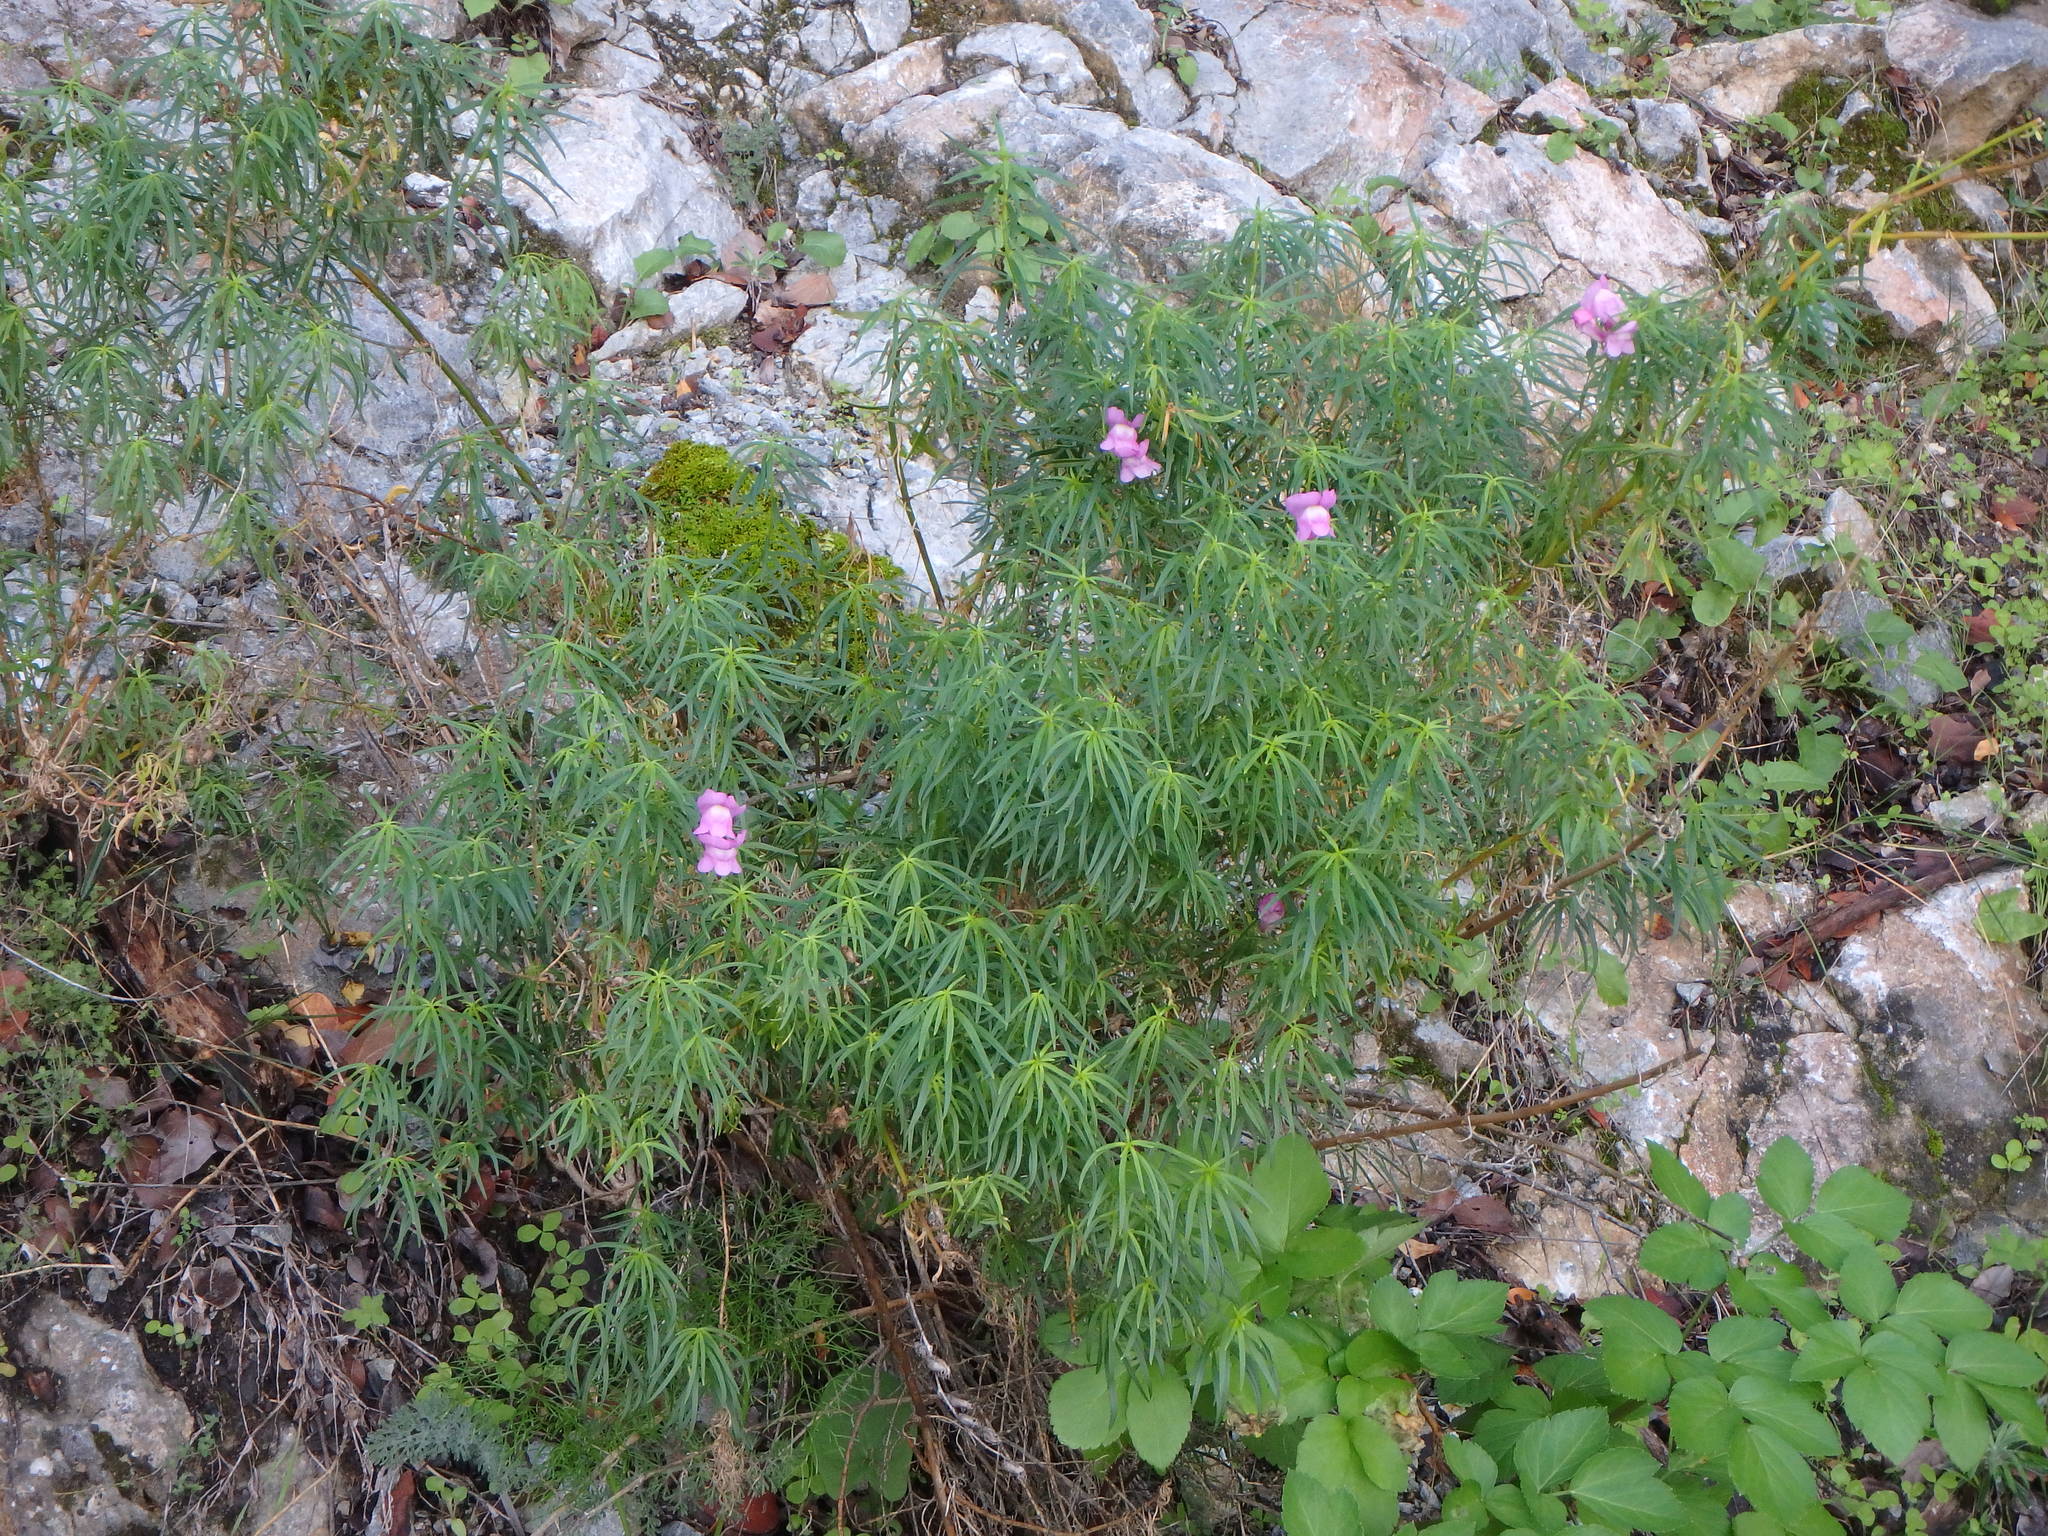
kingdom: Plantae
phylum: Tracheophyta
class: Magnoliopsida
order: Lamiales
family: Plantaginaceae
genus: Antirrhinum
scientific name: Antirrhinum tortuosum
